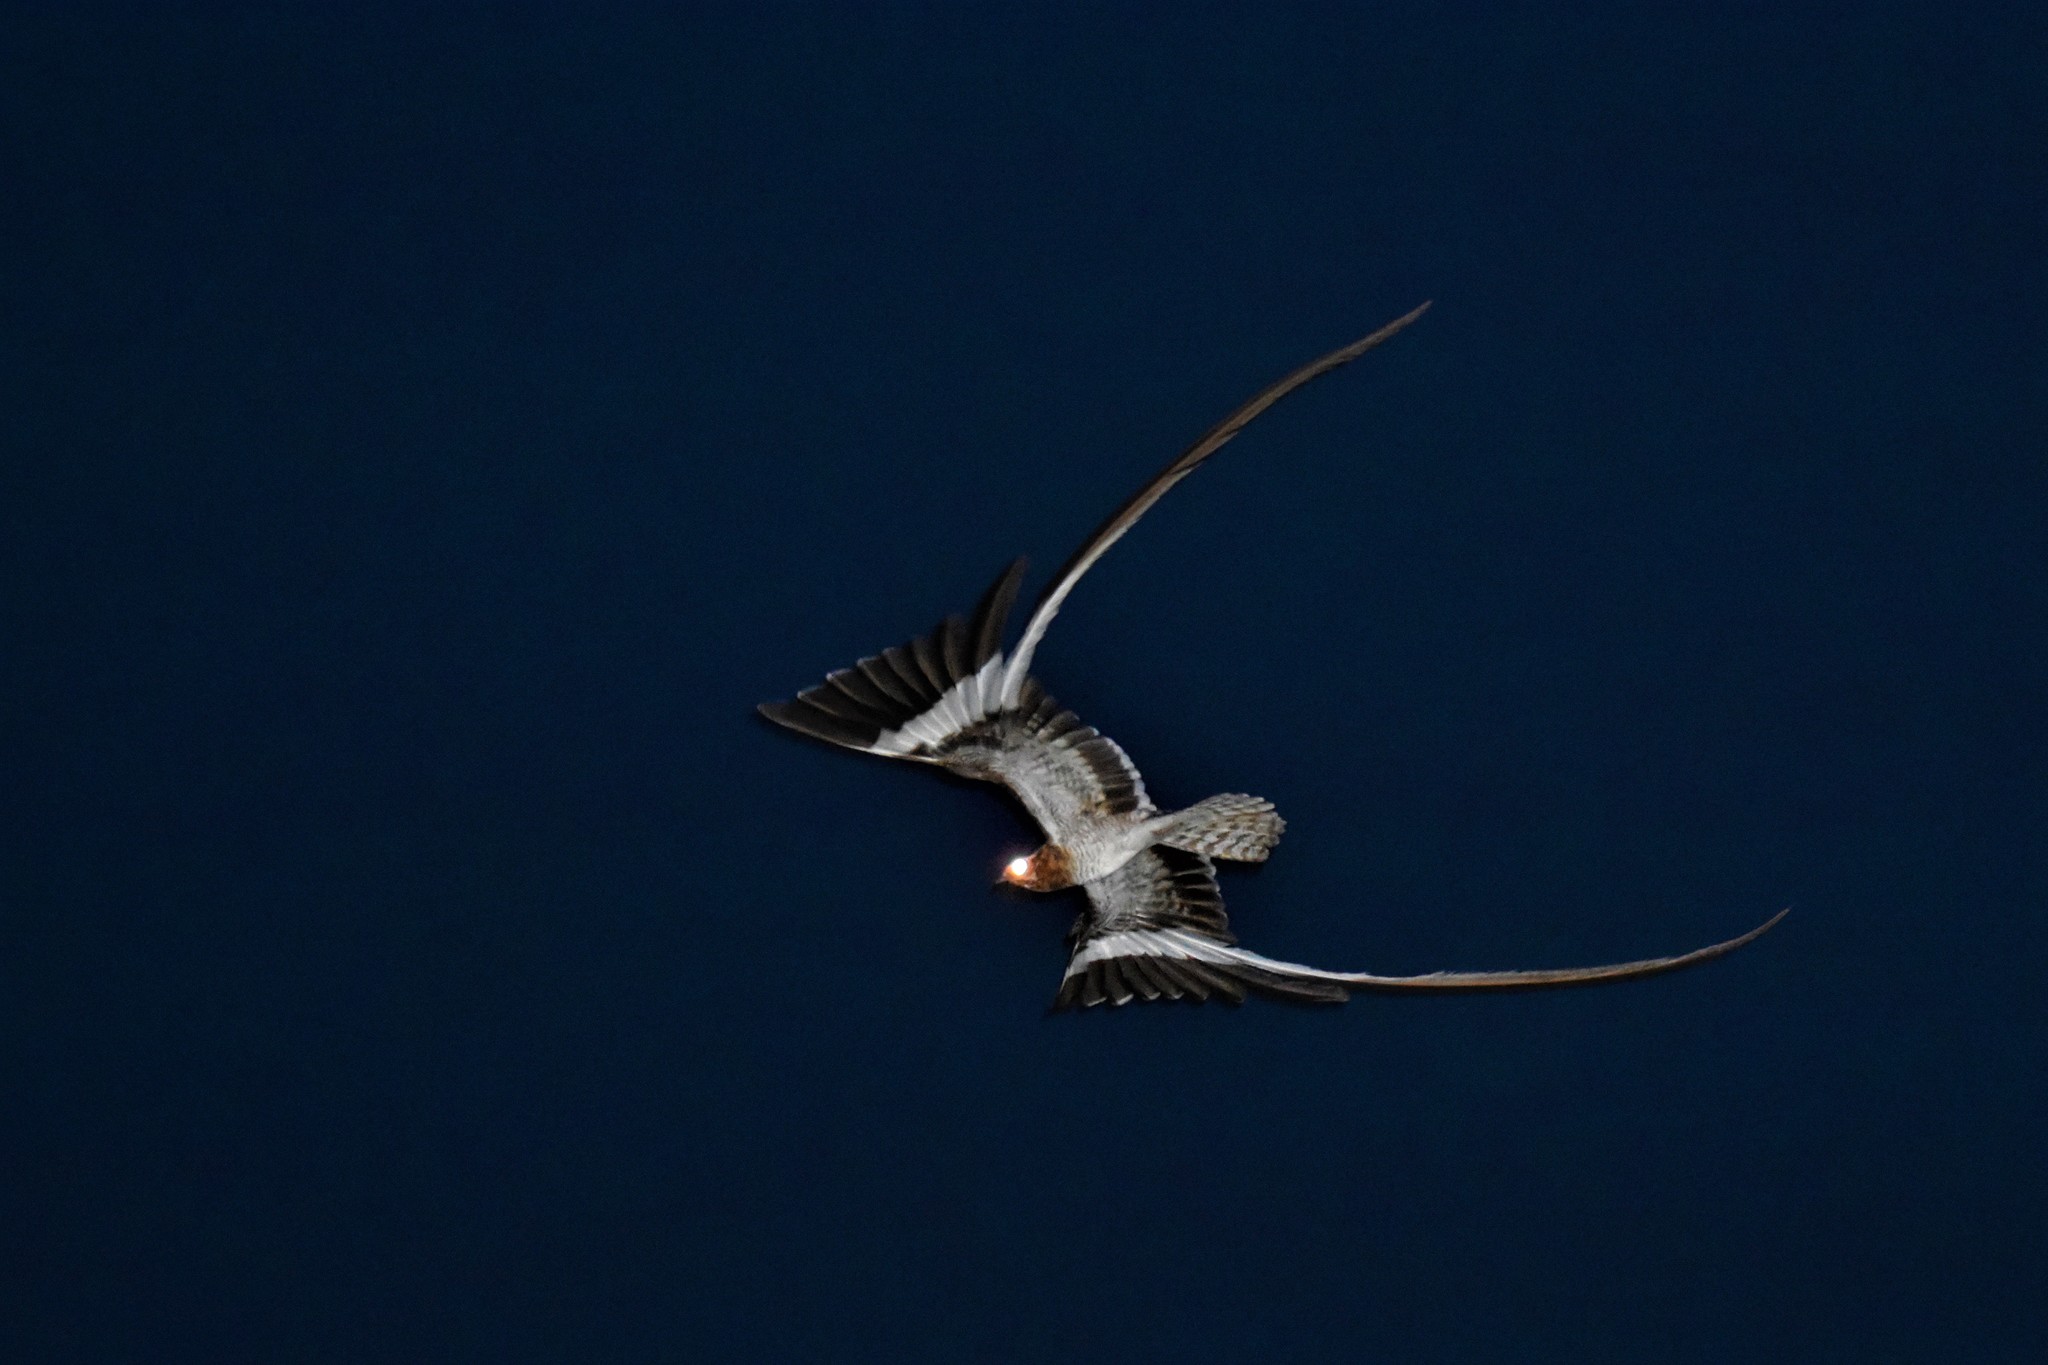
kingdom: Animalia
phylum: Chordata
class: Aves
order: Caprimulgiformes
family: Caprimulgidae
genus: Caprimulgus
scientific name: Caprimulgus vexillarius
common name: Pennant-winged nightjar
